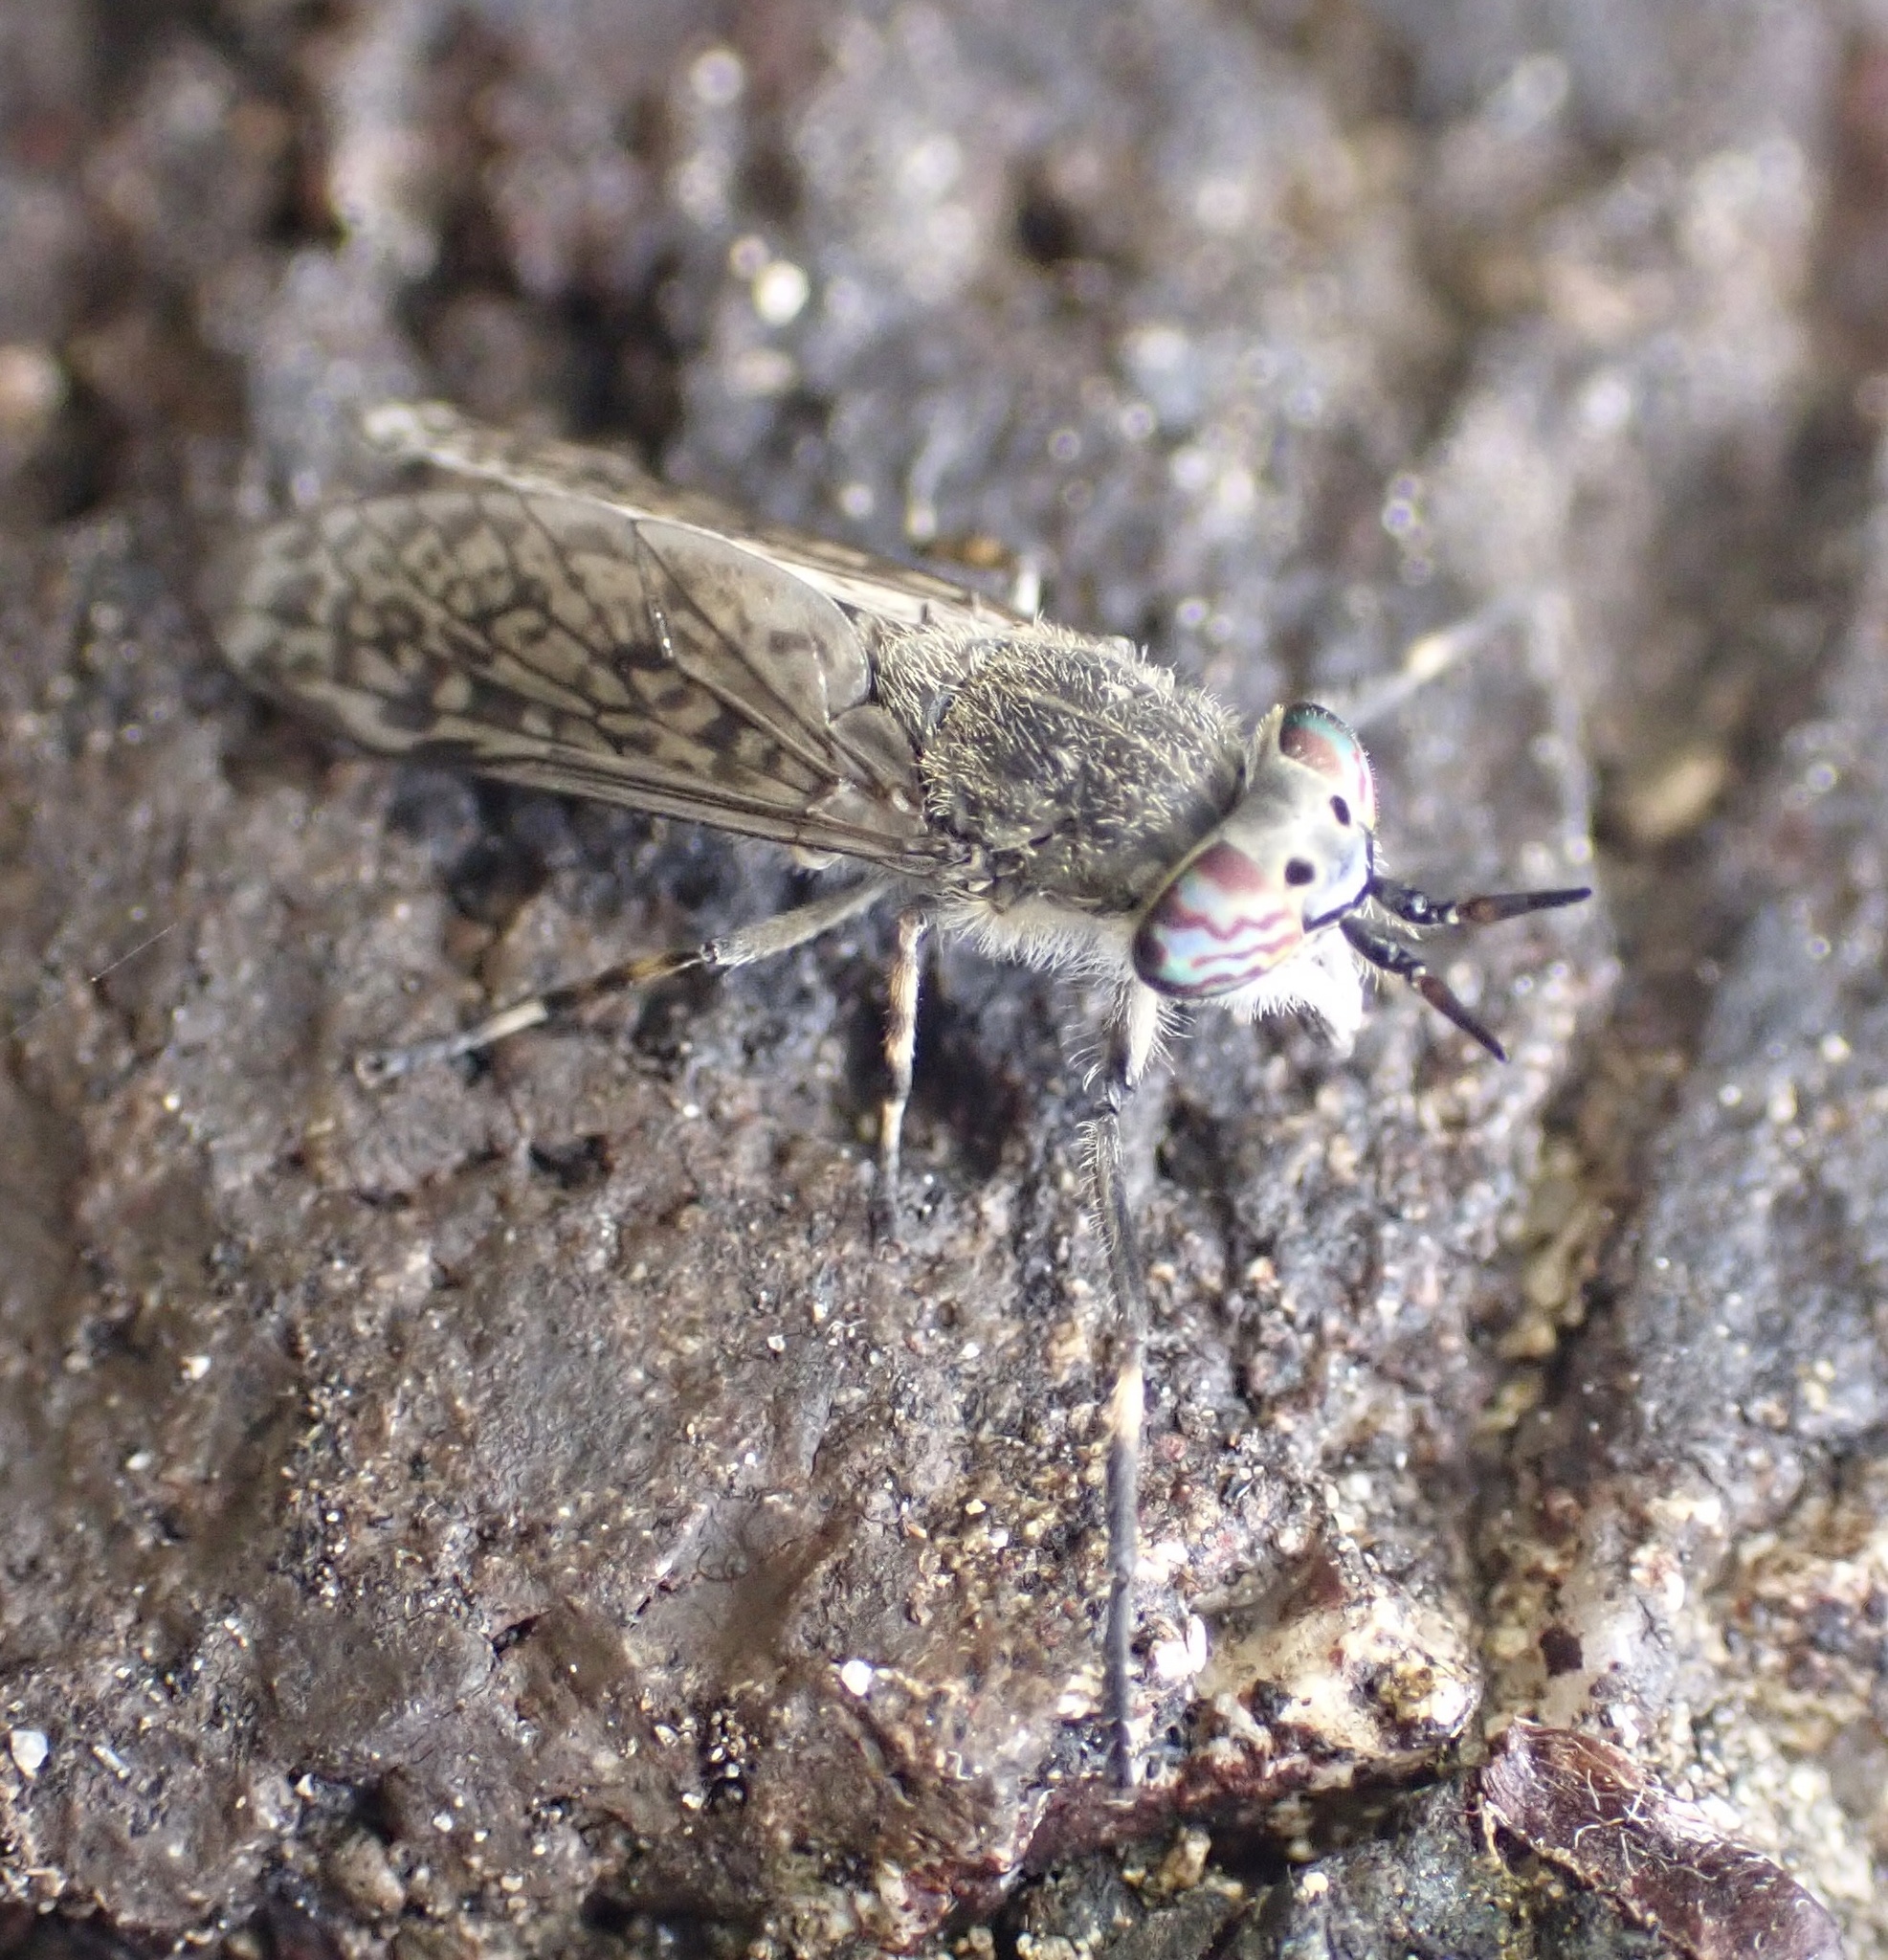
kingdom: Animalia
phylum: Arthropoda
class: Insecta
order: Diptera
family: Tabanidae
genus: Haematopota
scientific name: Haematopota pluvialis
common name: Common horse fly
